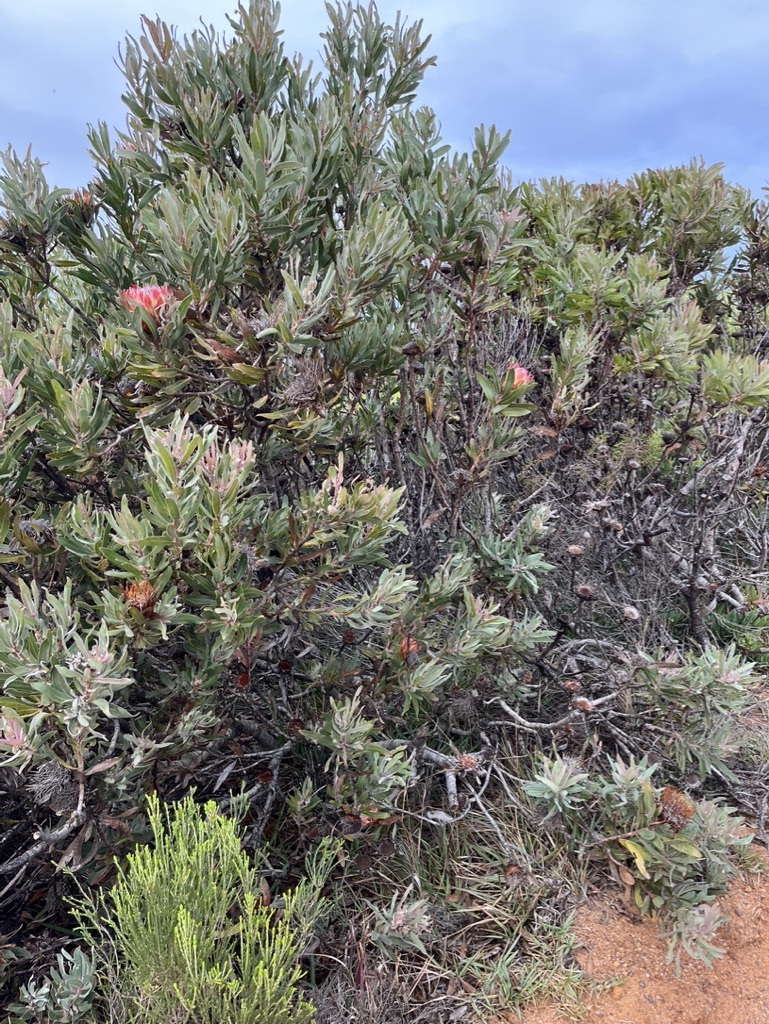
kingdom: Plantae
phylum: Tracheophyta
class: Magnoliopsida
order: Proteales
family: Proteaceae
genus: Protea
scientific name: Protea susannae
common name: Foetid-leaf sugarbush
